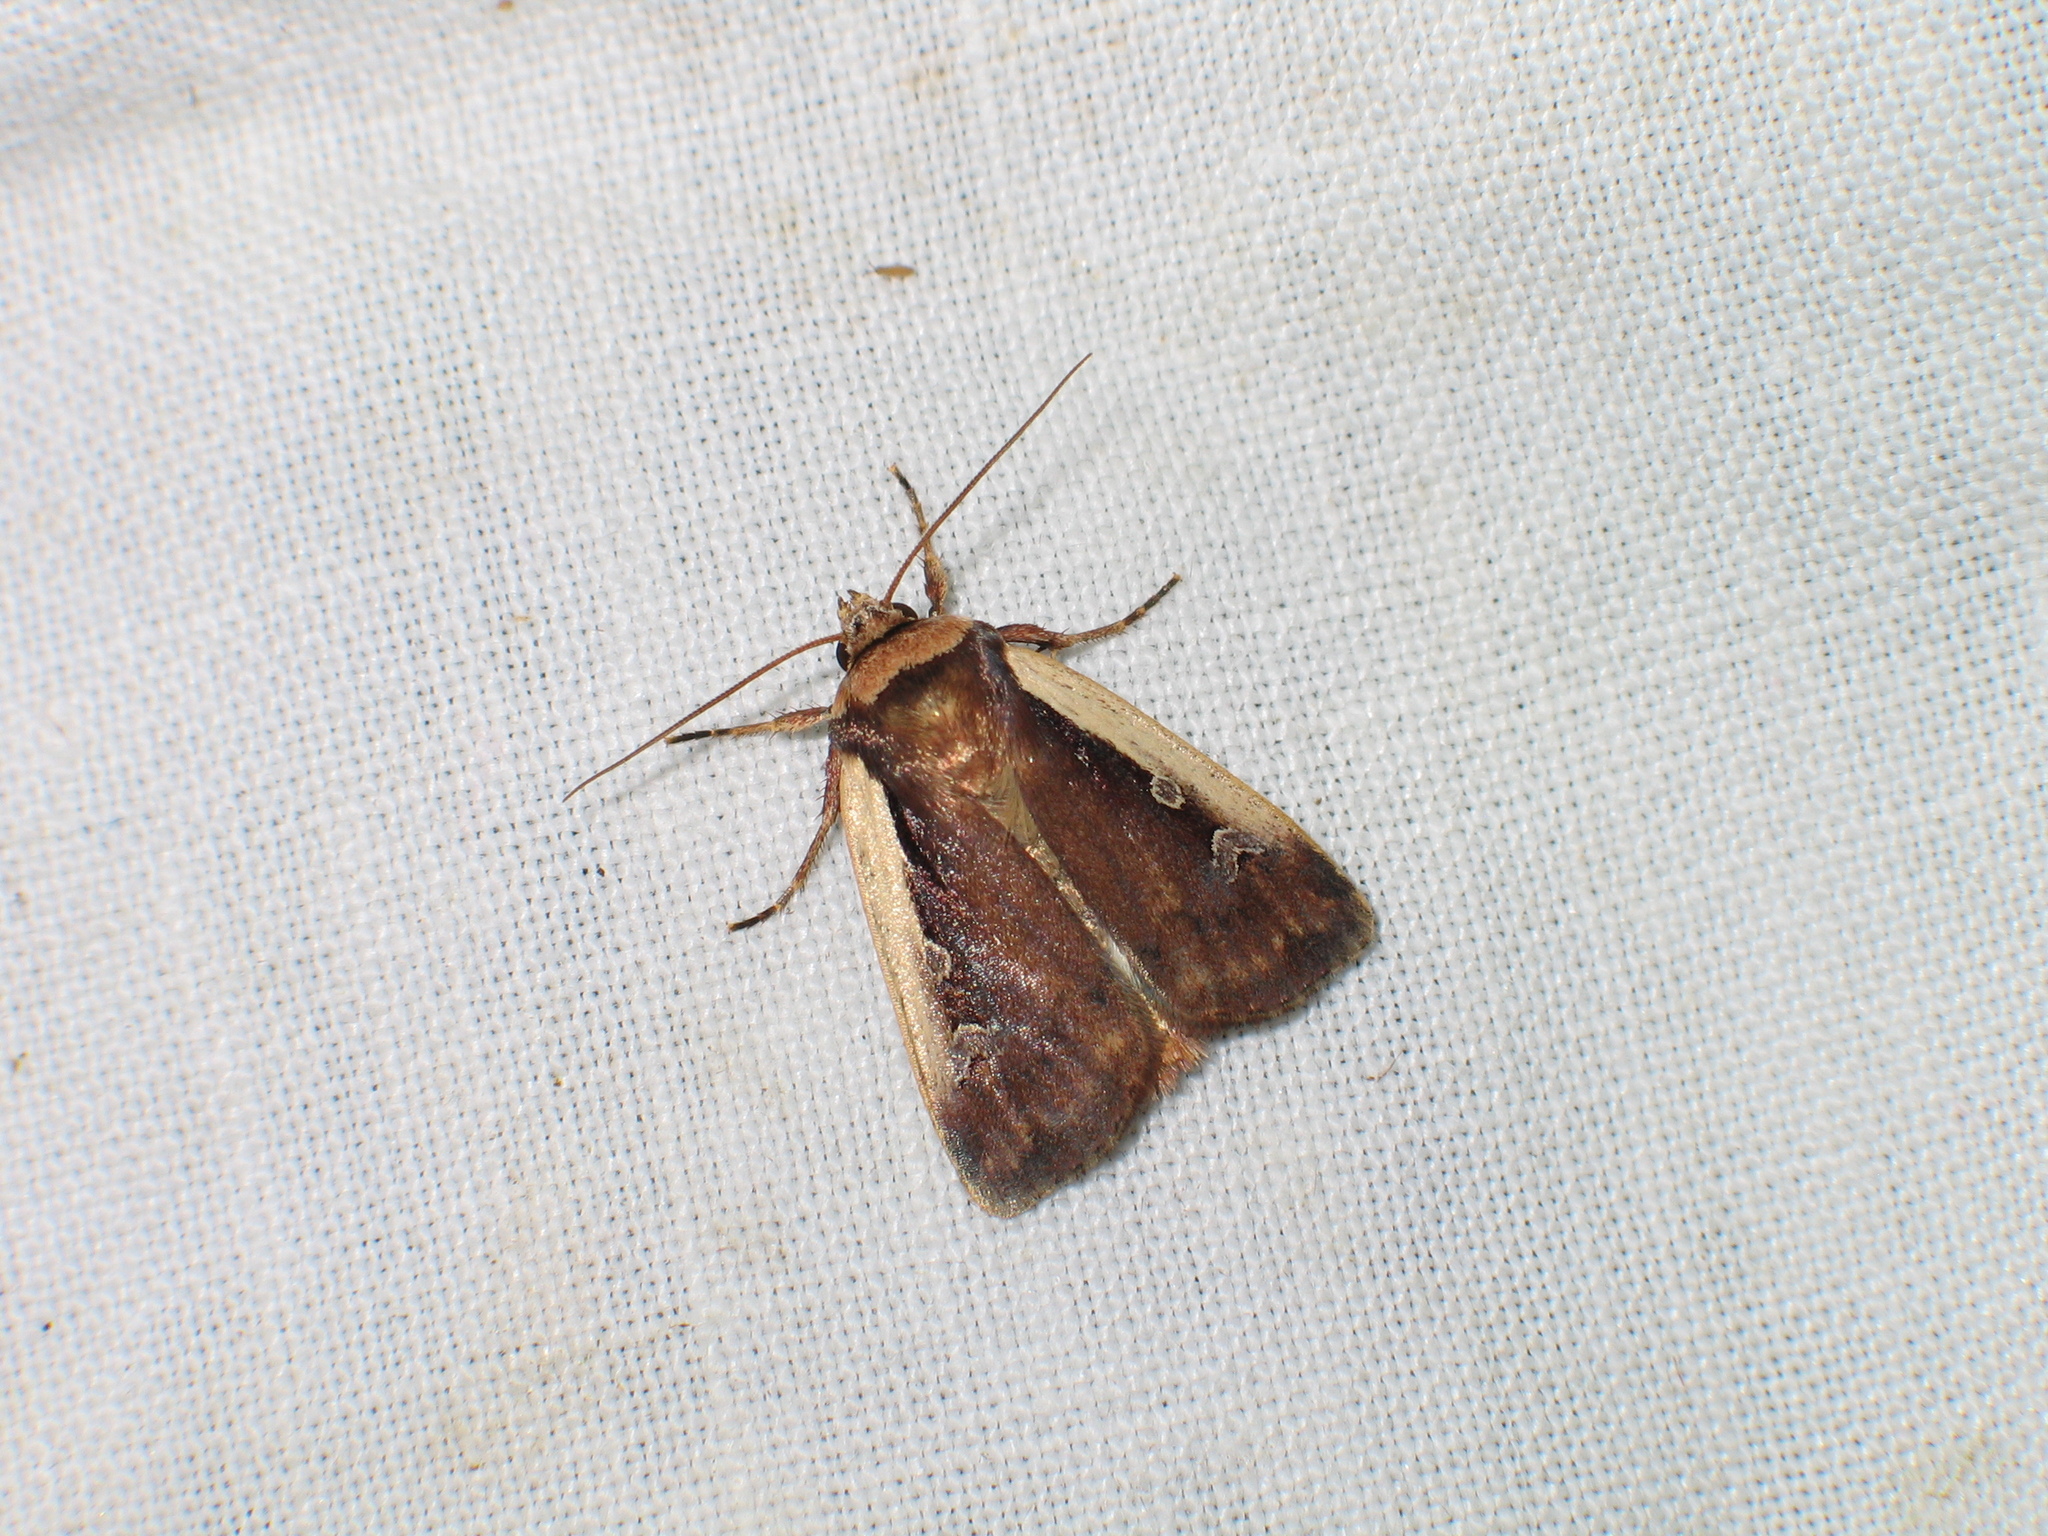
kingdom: Animalia
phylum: Arthropoda
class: Insecta
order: Lepidoptera
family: Noctuidae
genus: Ochropleura
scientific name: Ochropleura plecta
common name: Flame shoulder
